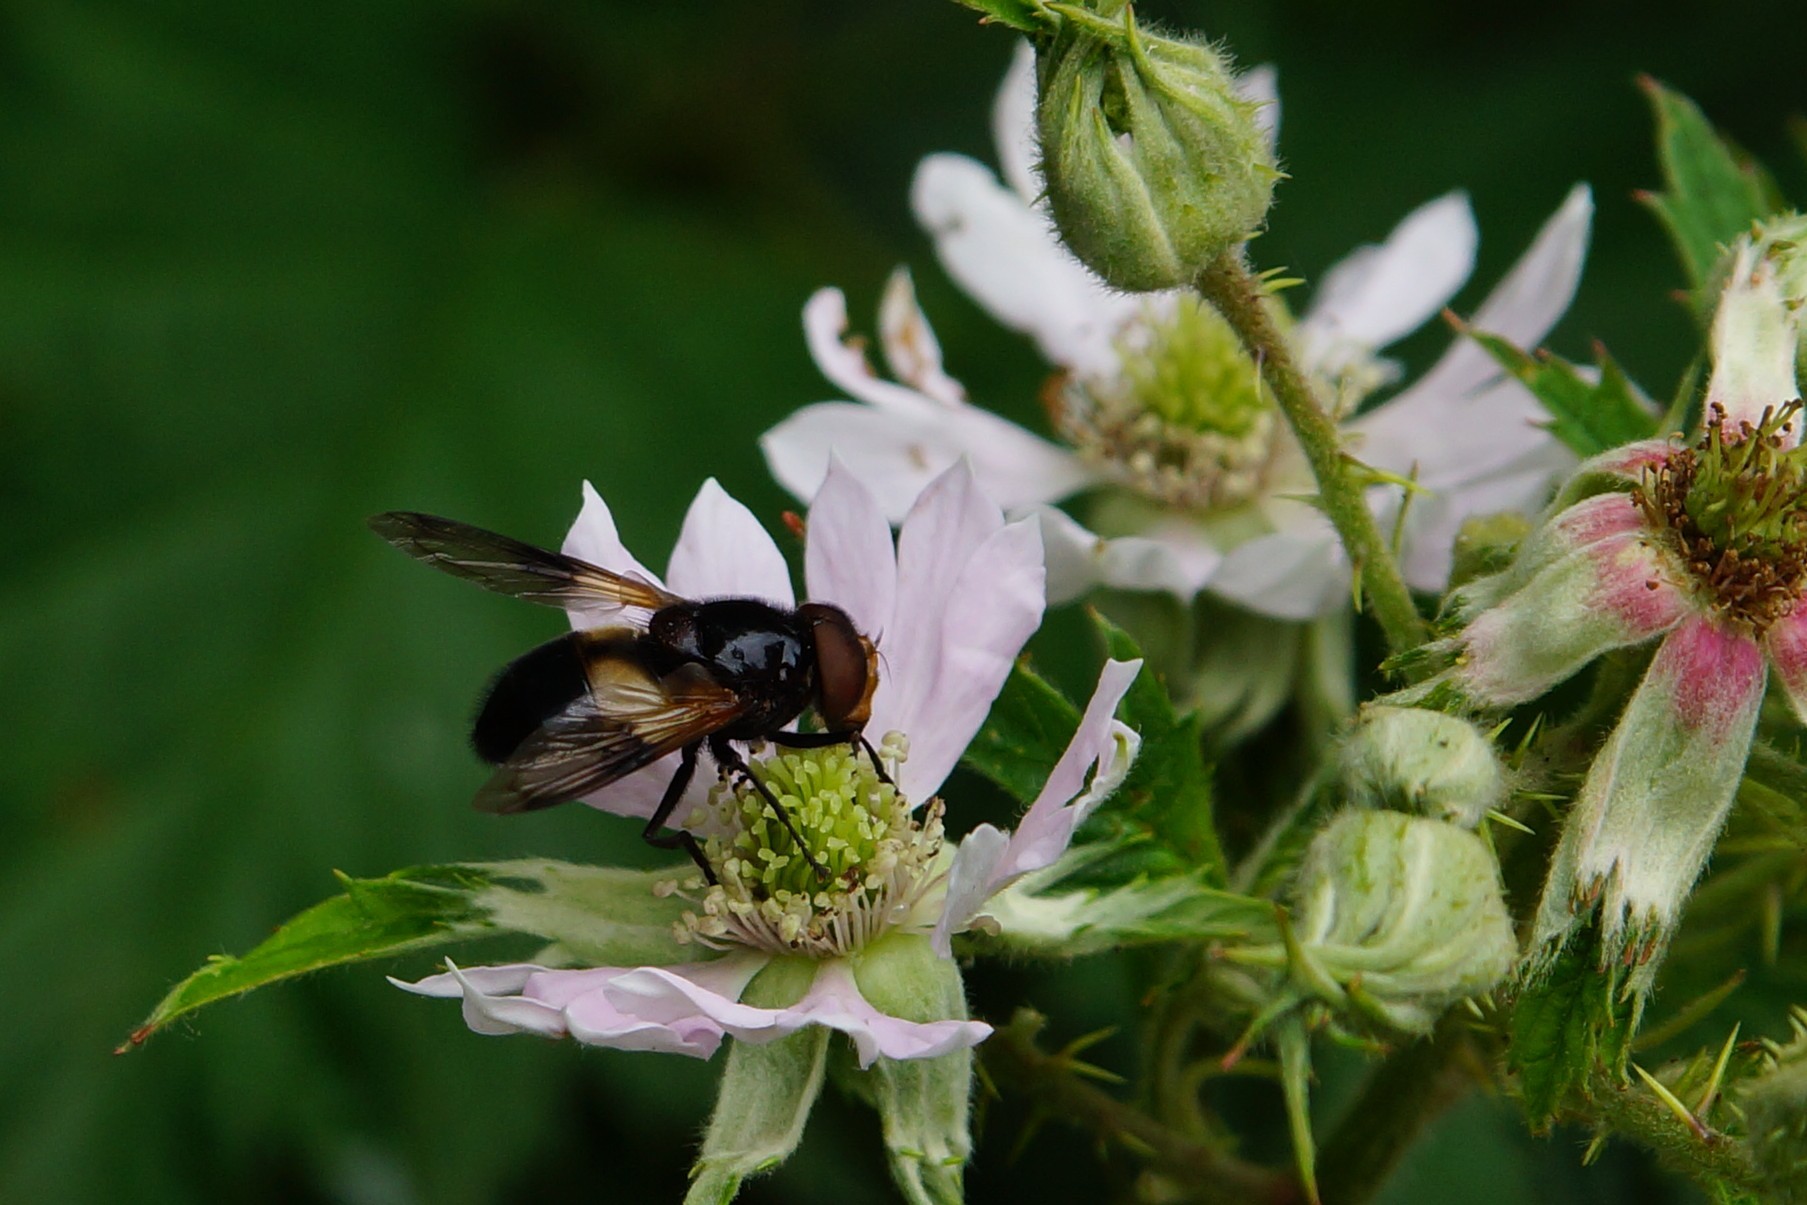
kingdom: Animalia
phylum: Arthropoda
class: Insecta
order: Diptera
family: Syrphidae
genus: Volucella
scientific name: Volucella pellucens
